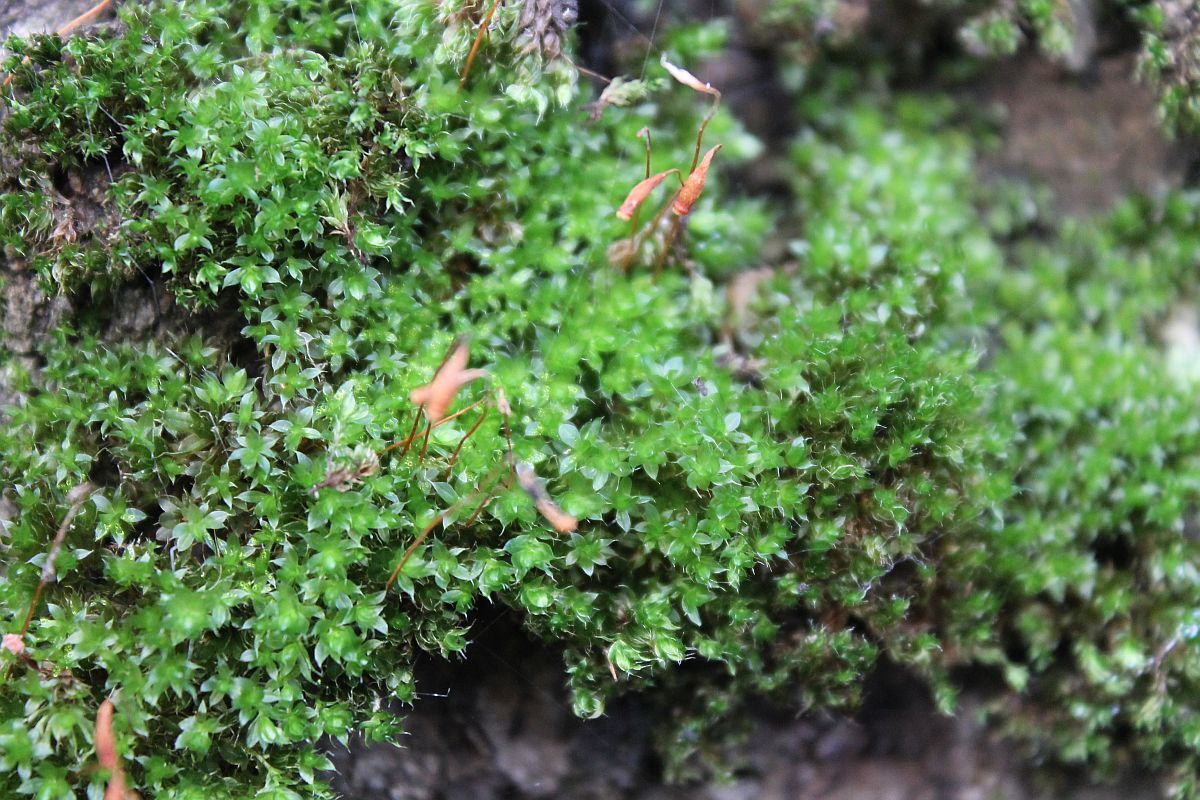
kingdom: Plantae
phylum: Bryophyta
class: Bryopsida
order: Bryales
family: Bryaceae
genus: Rosulabryum
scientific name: Rosulabryum capillare
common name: Capillary thread-moss
